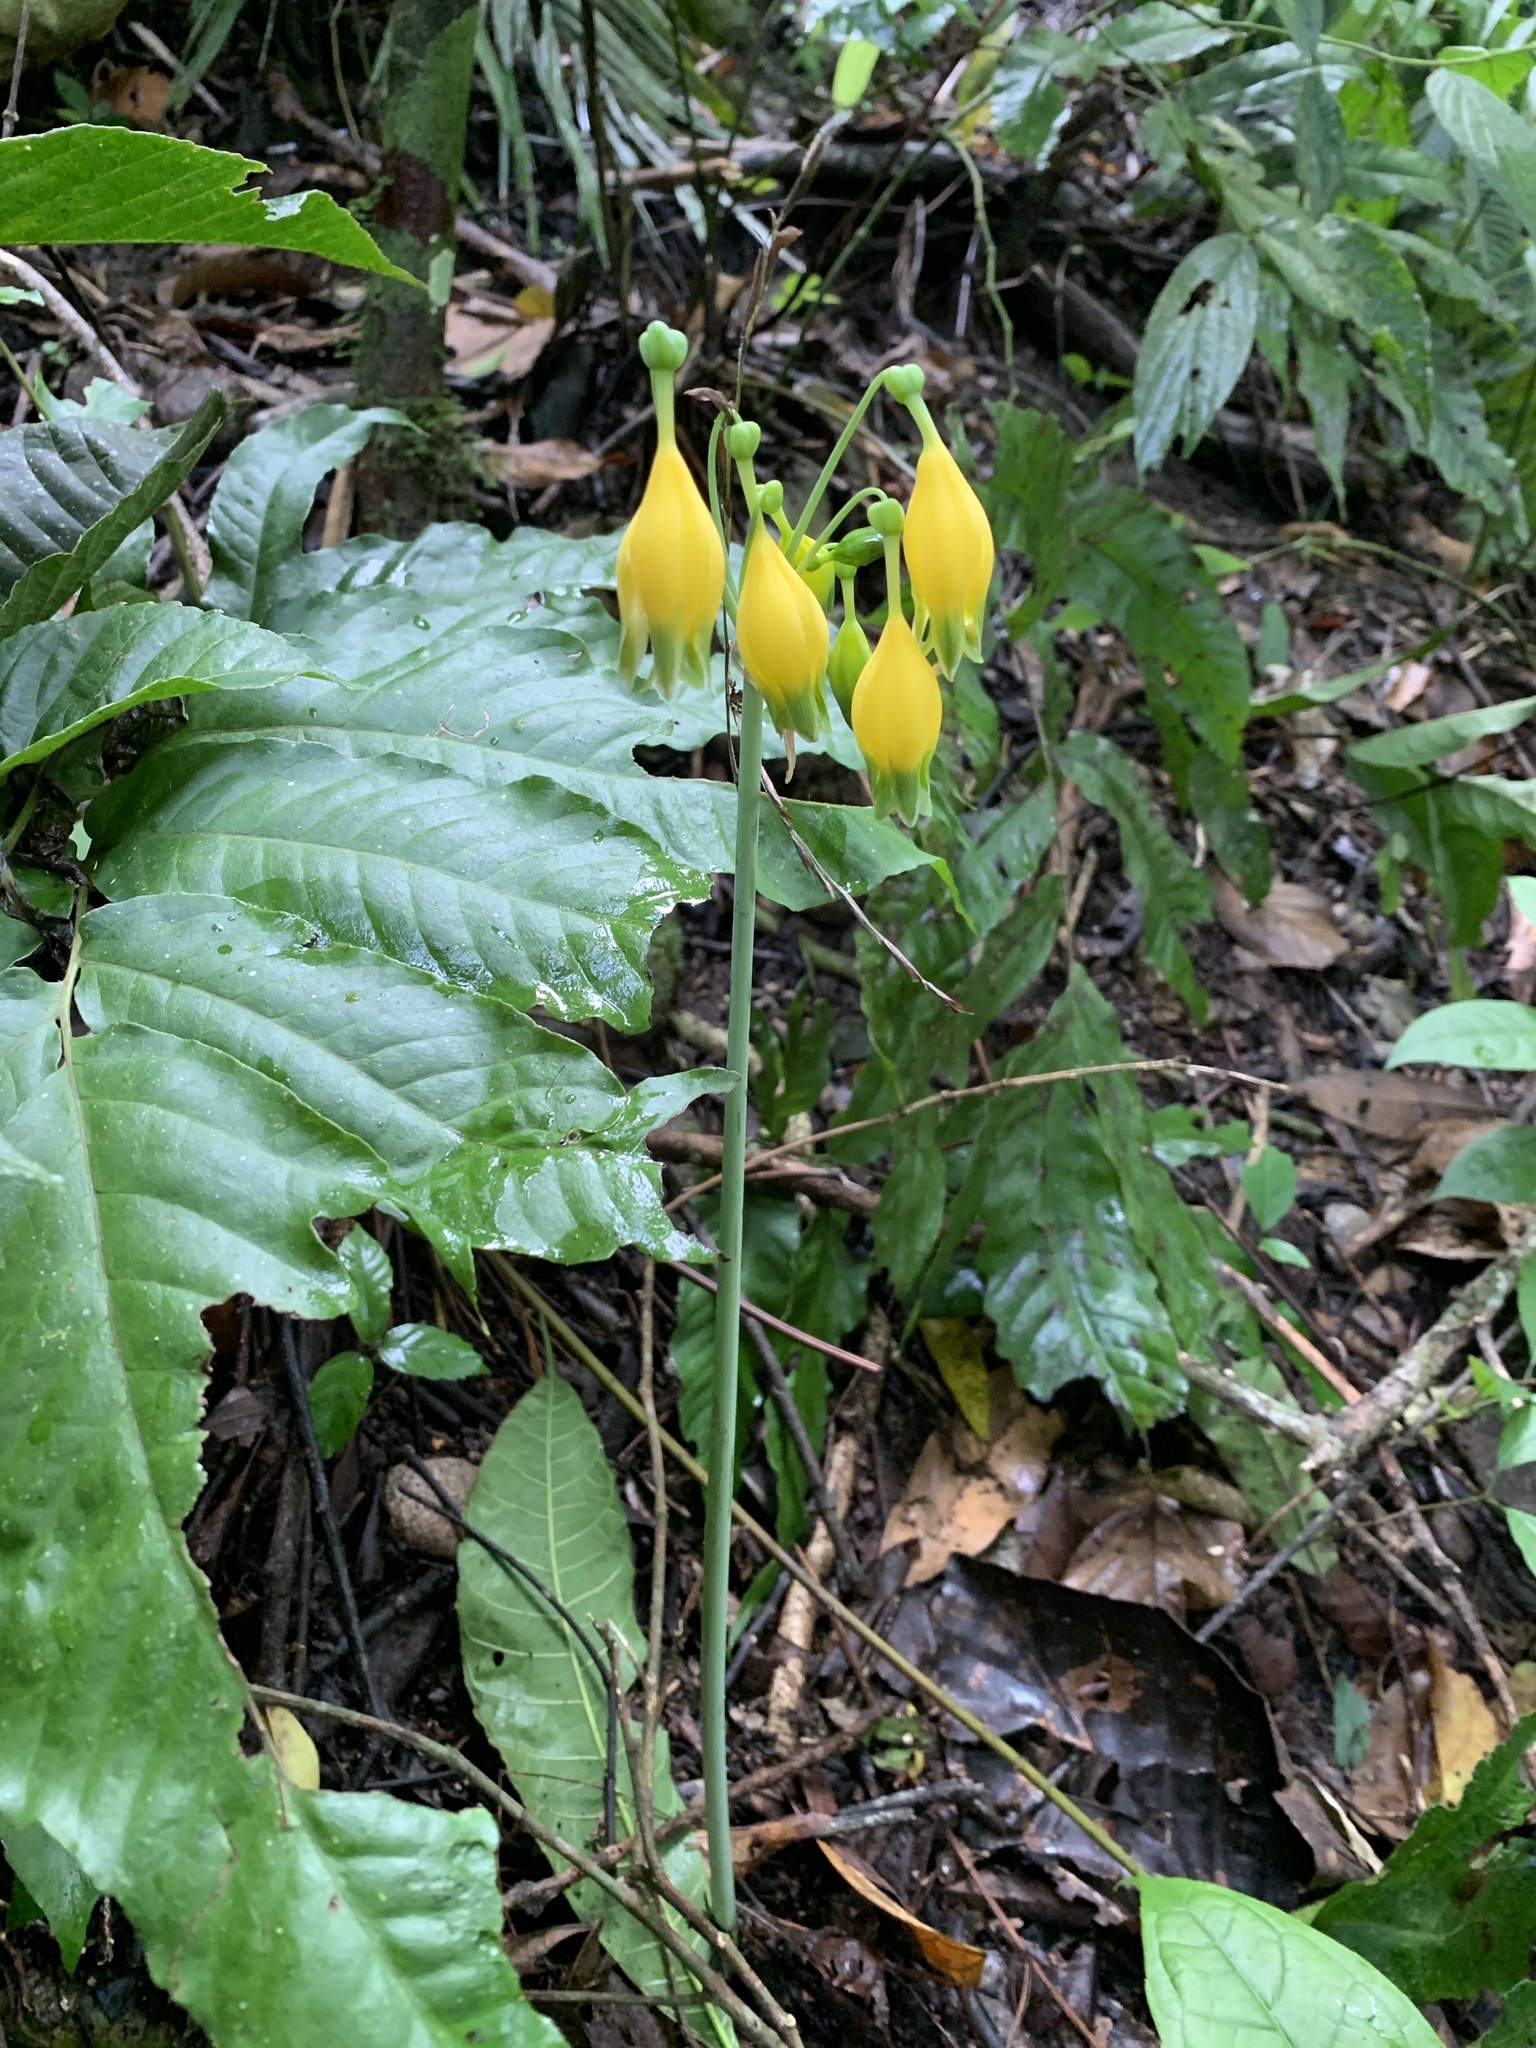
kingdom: Plantae
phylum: Tracheophyta
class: Liliopsida
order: Asparagales
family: Amaryllidaceae
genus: Urceolina
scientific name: Urceolina microcrater
